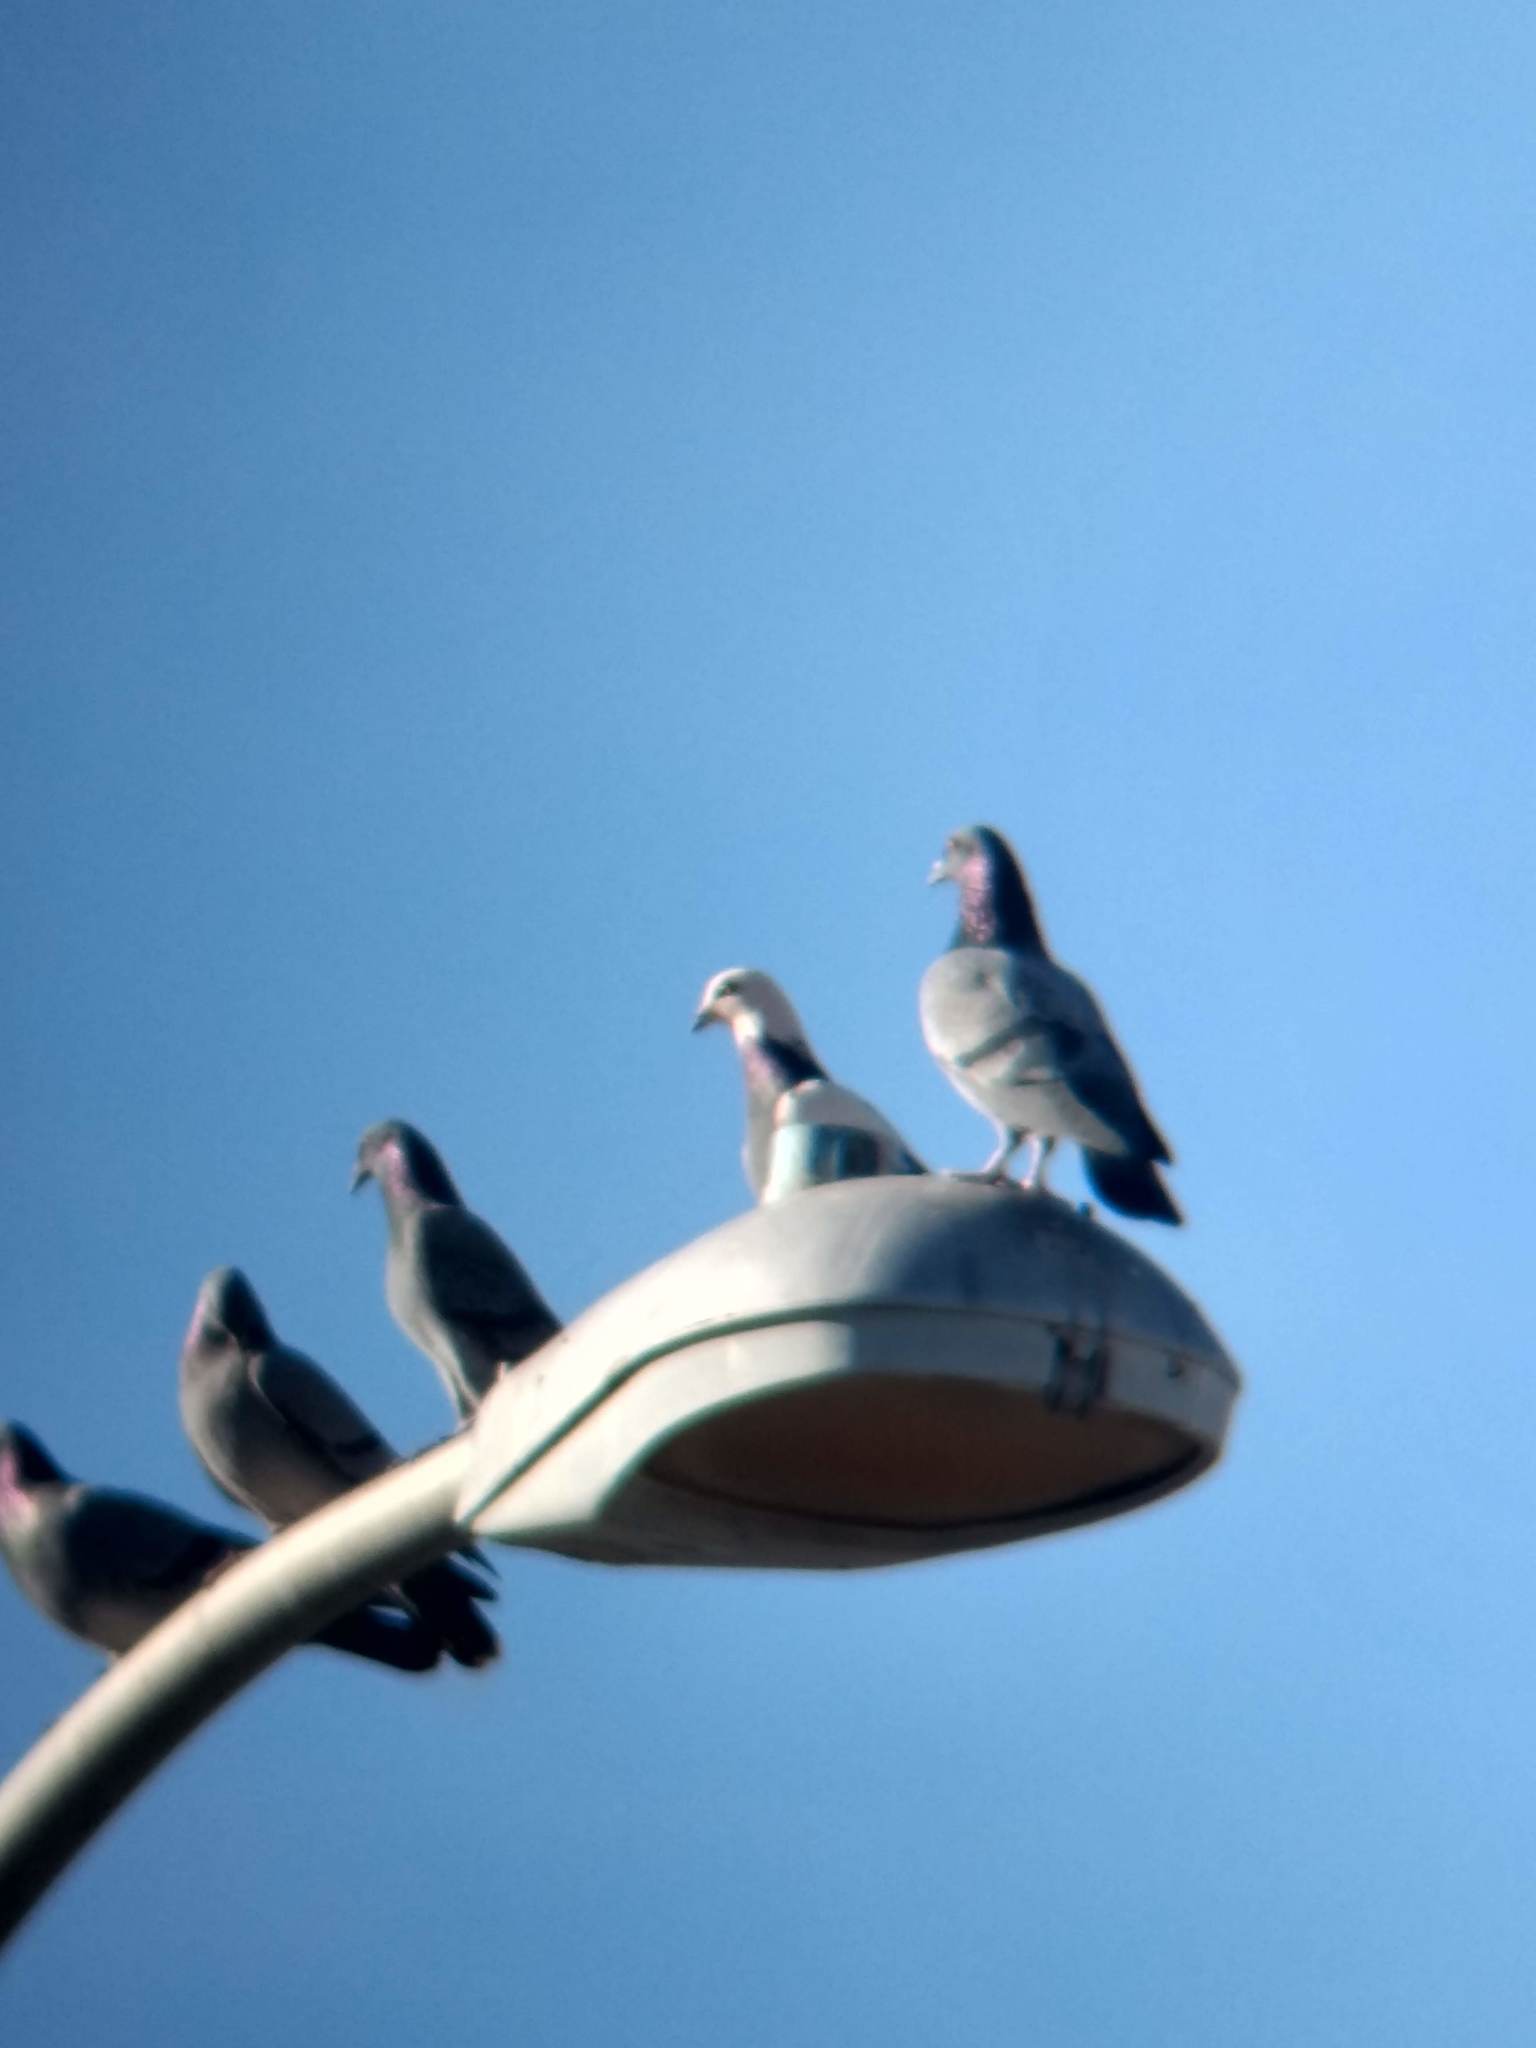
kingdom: Animalia
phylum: Chordata
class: Aves
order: Columbiformes
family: Columbidae
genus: Columba
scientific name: Columba livia
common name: Rock pigeon
